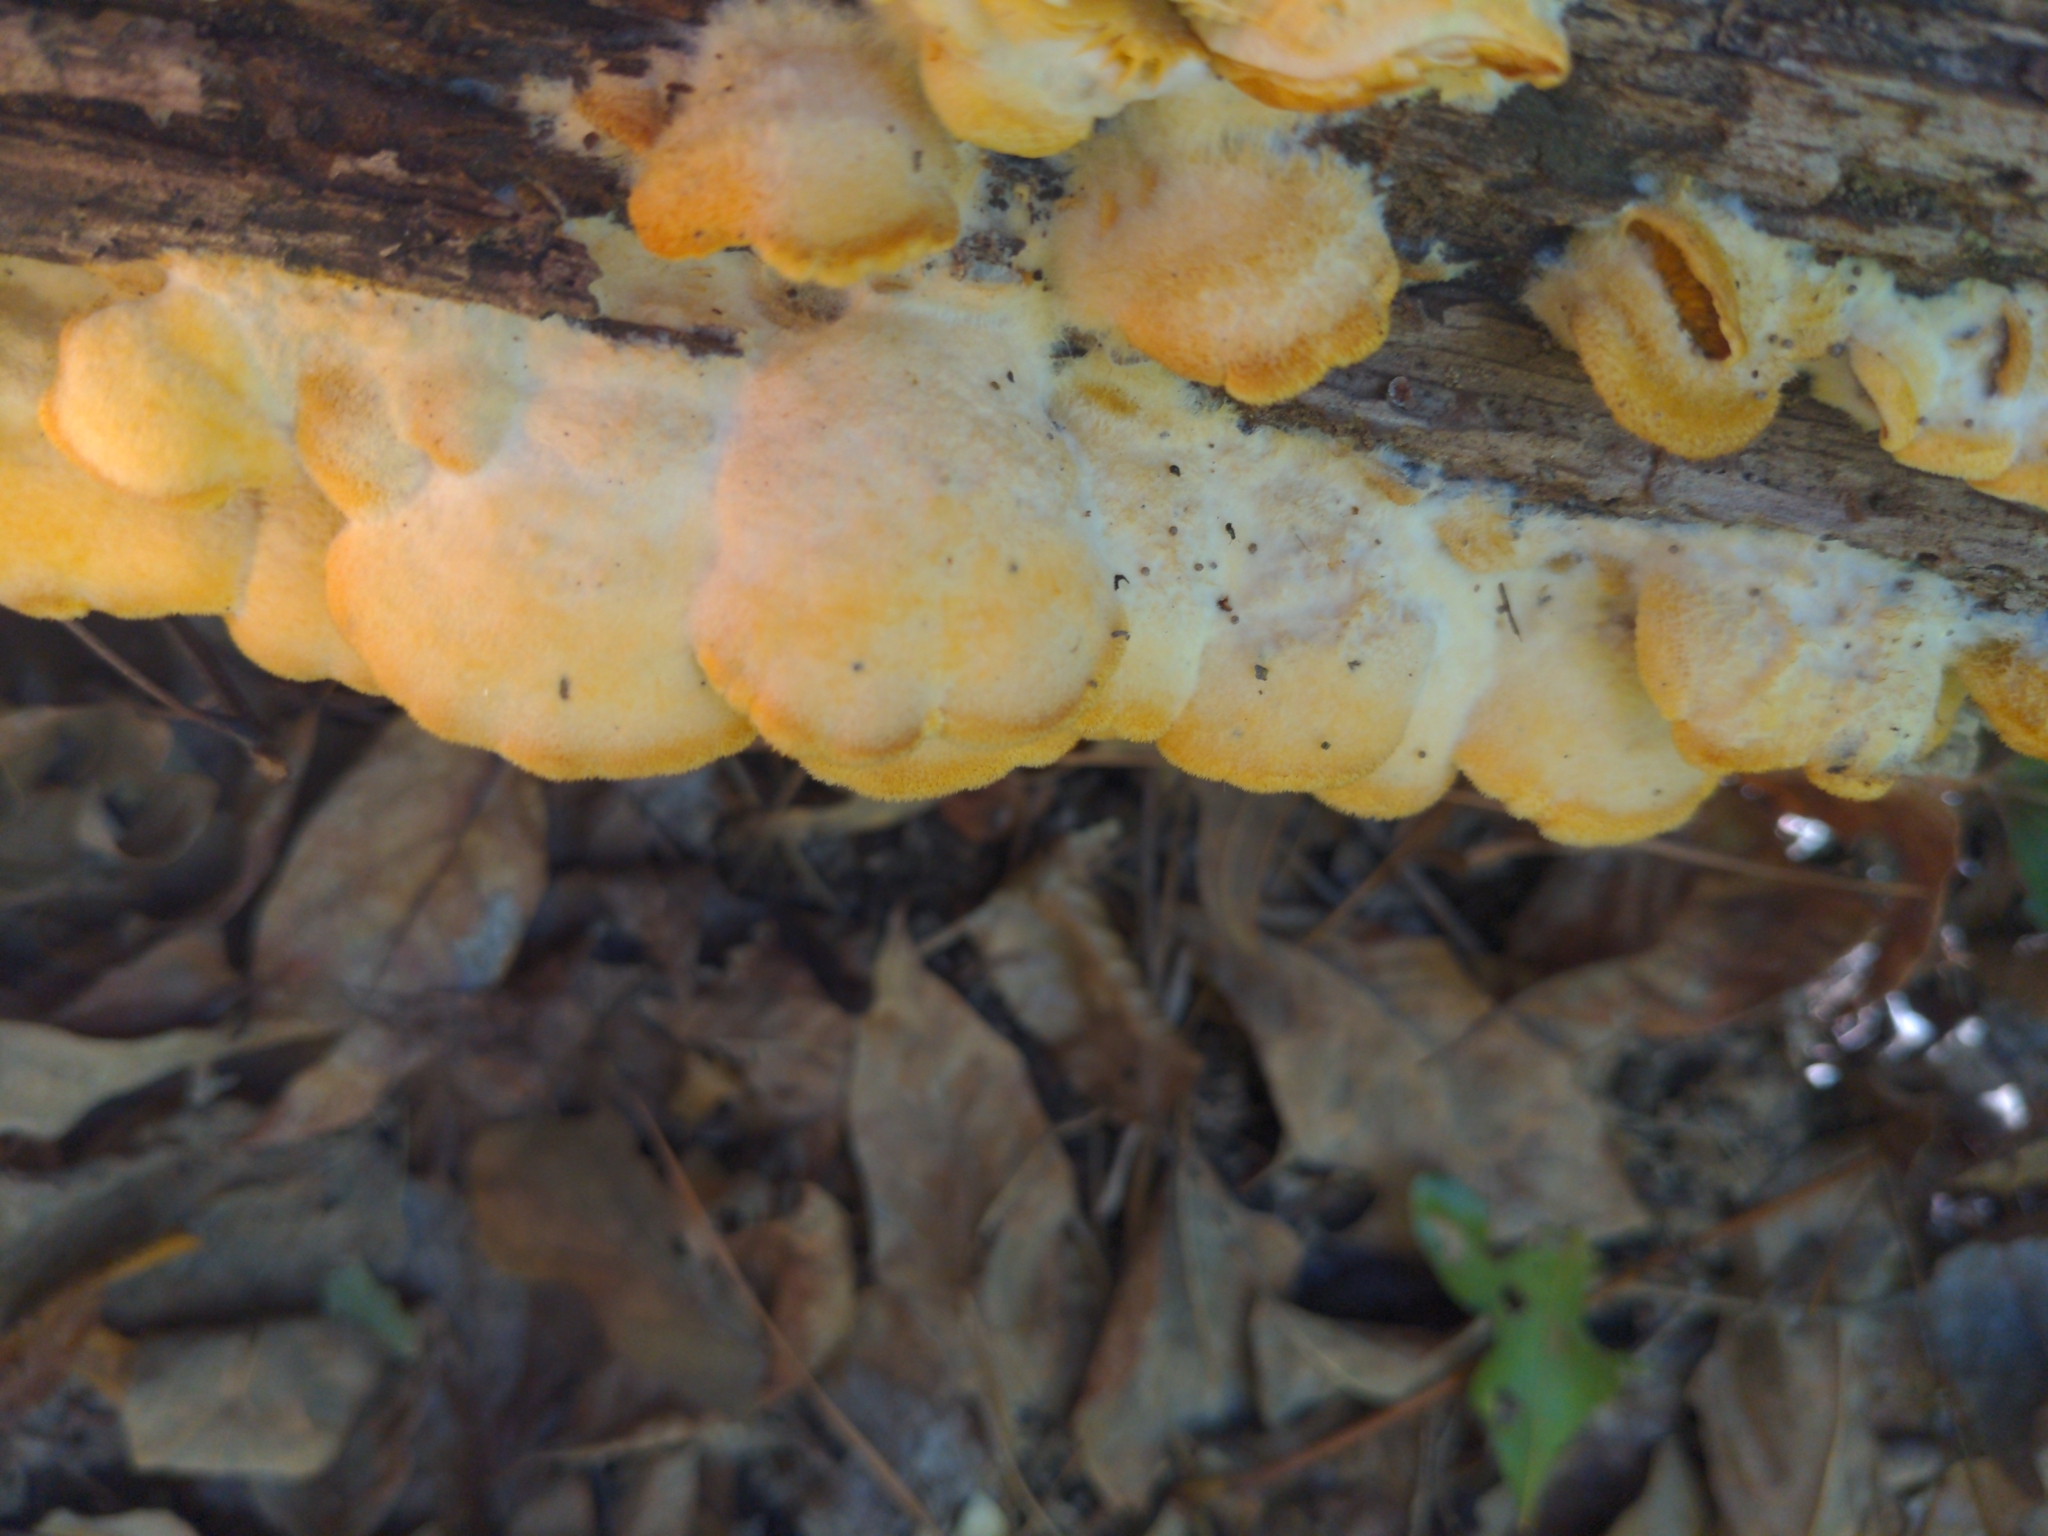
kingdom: Fungi
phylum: Basidiomycota
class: Agaricomycetes
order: Agaricales
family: Phyllotopsidaceae
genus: Phyllotopsis
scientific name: Phyllotopsis nidulans
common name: Orange mock oyster
